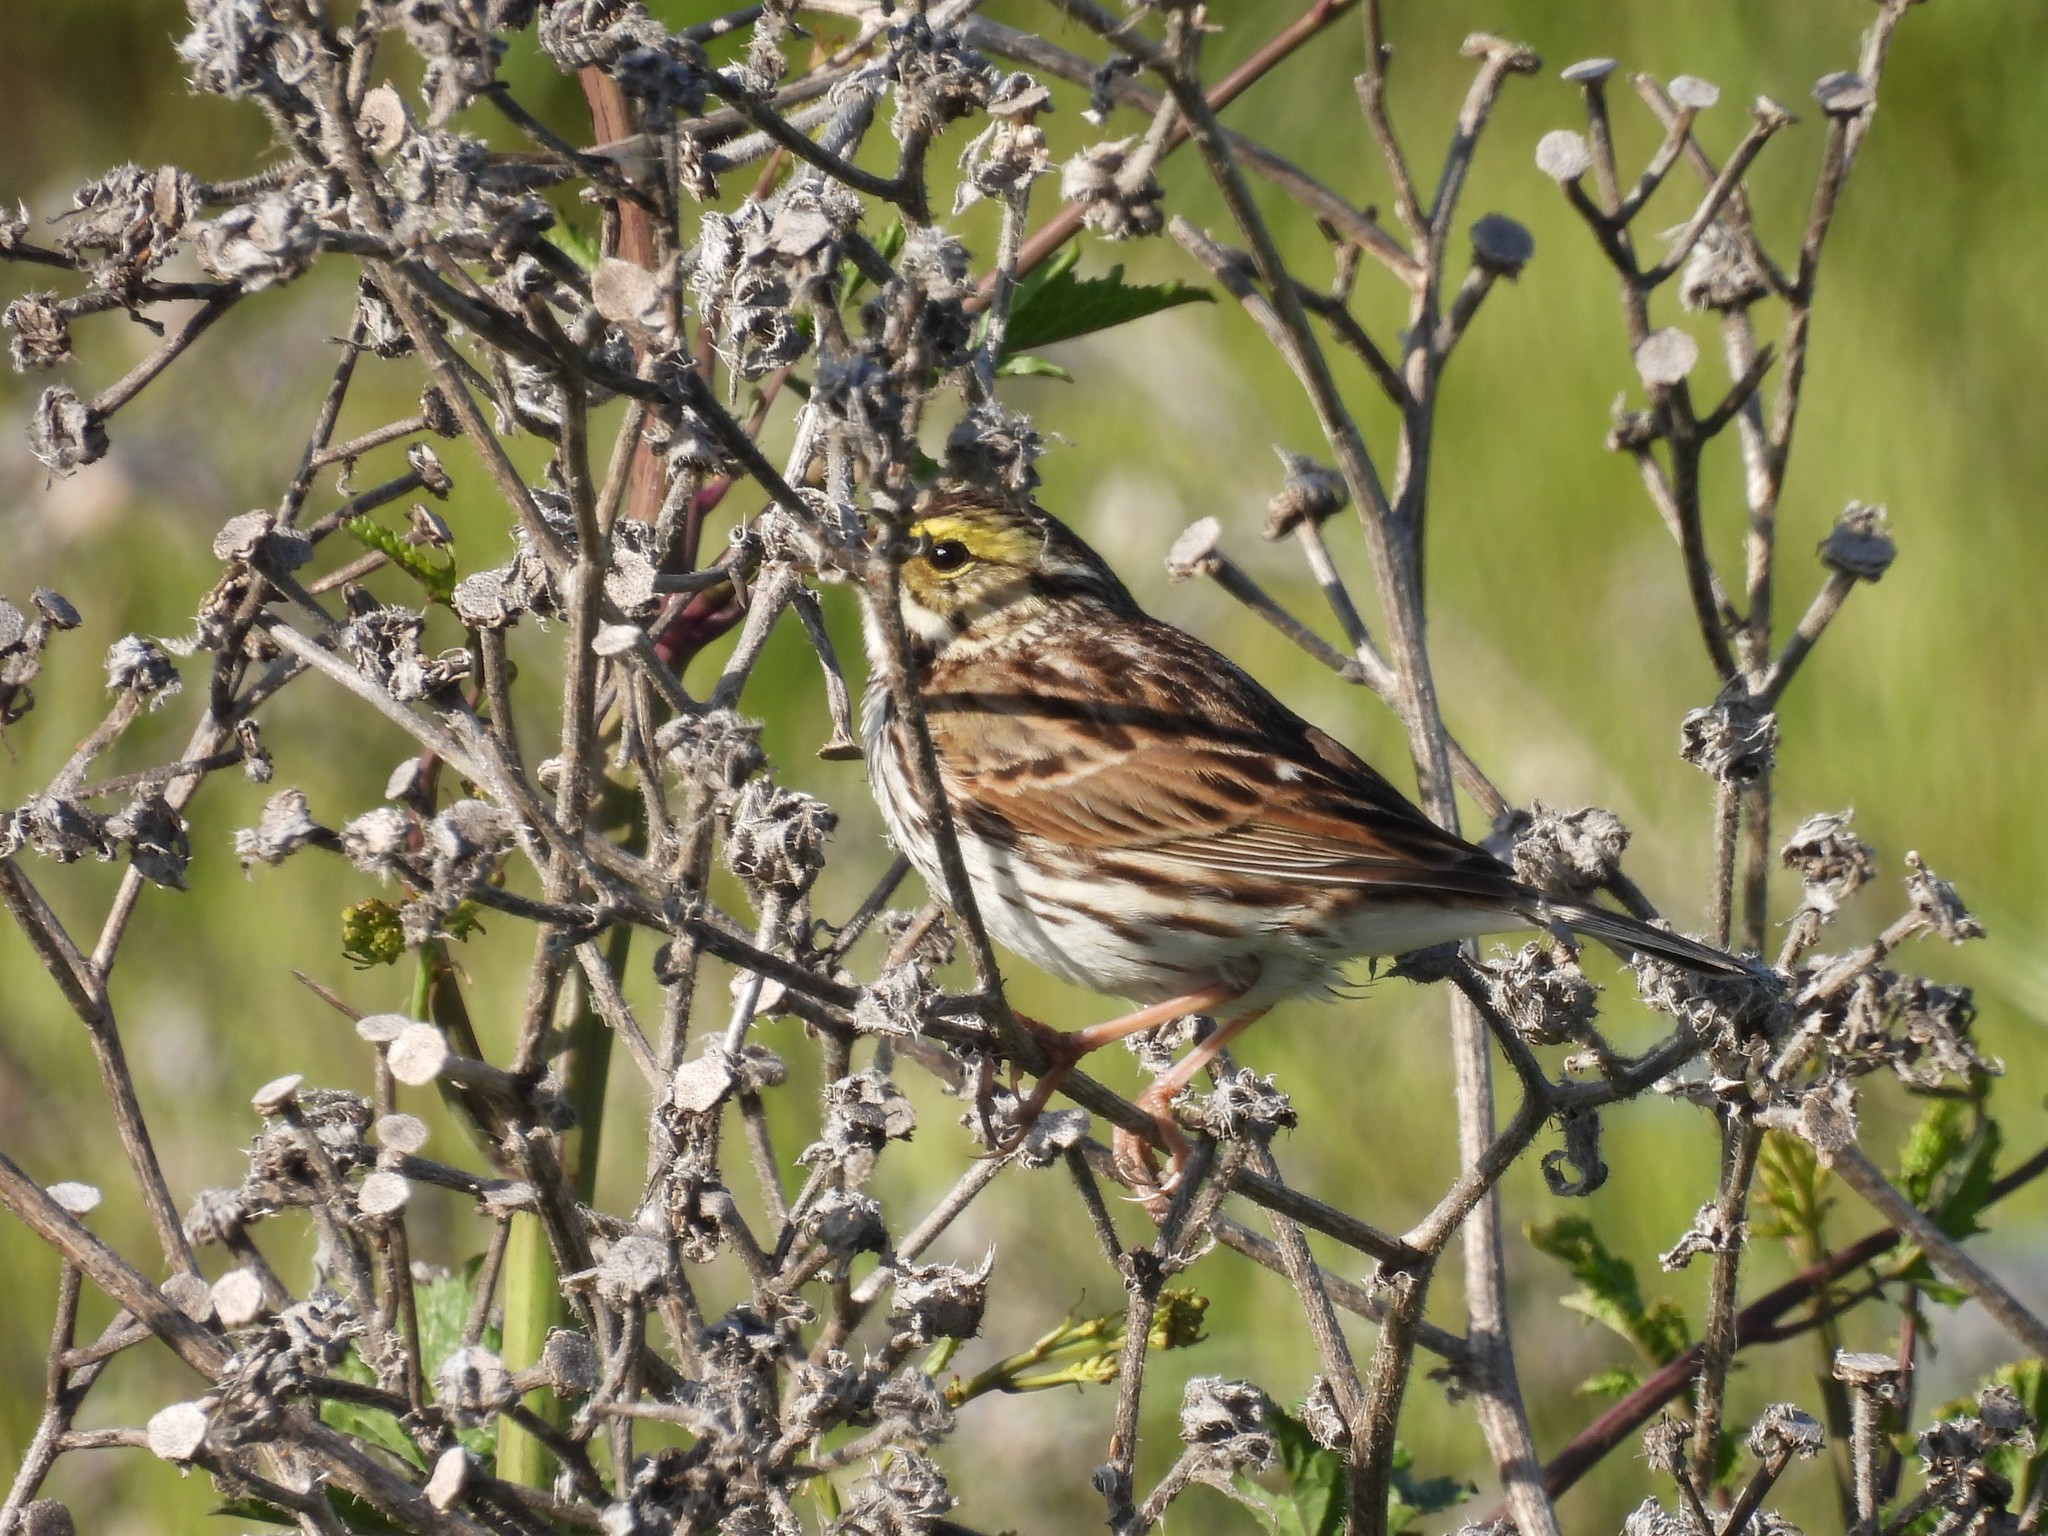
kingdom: Animalia
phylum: Chordata
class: Aves
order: Passeriformes
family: Passerellidae
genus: Passerculus
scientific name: Passerculus sandwichensis
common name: Savannah sparrow
